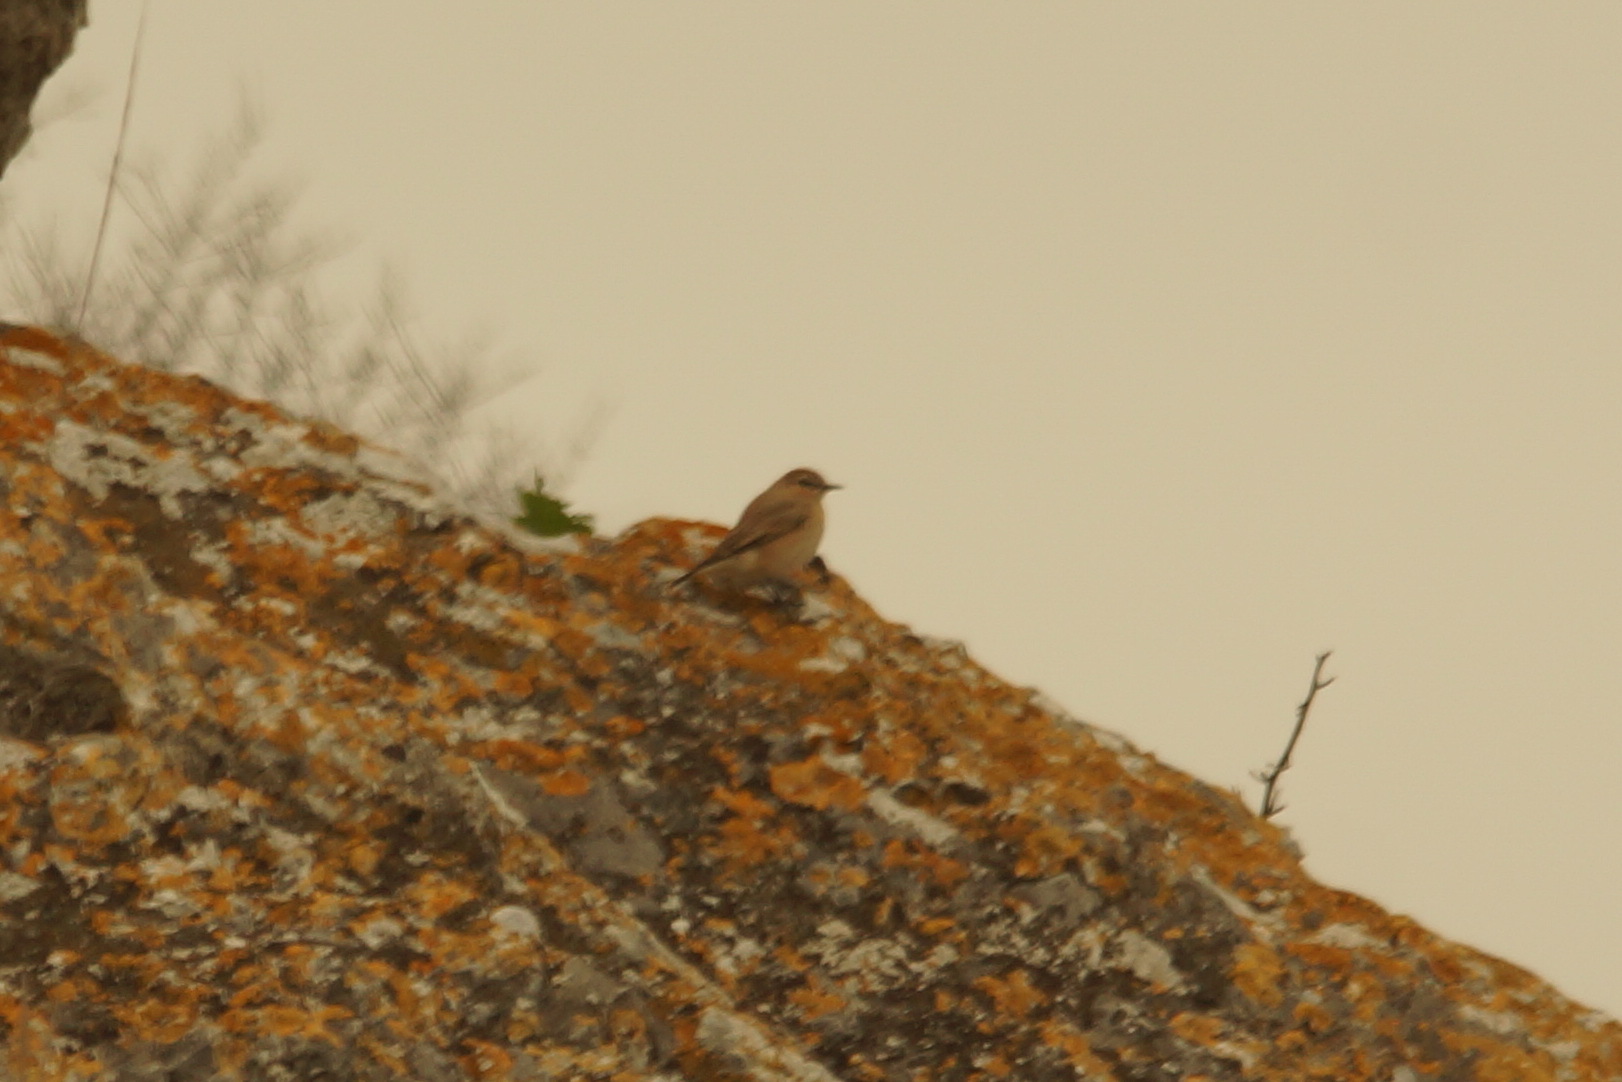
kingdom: Animalia
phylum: Chordata
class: Aves
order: Passeriformes
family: Muscicapidae
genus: Oenanthe
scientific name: Oenanthe isabellina
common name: Isabelline wheatear
